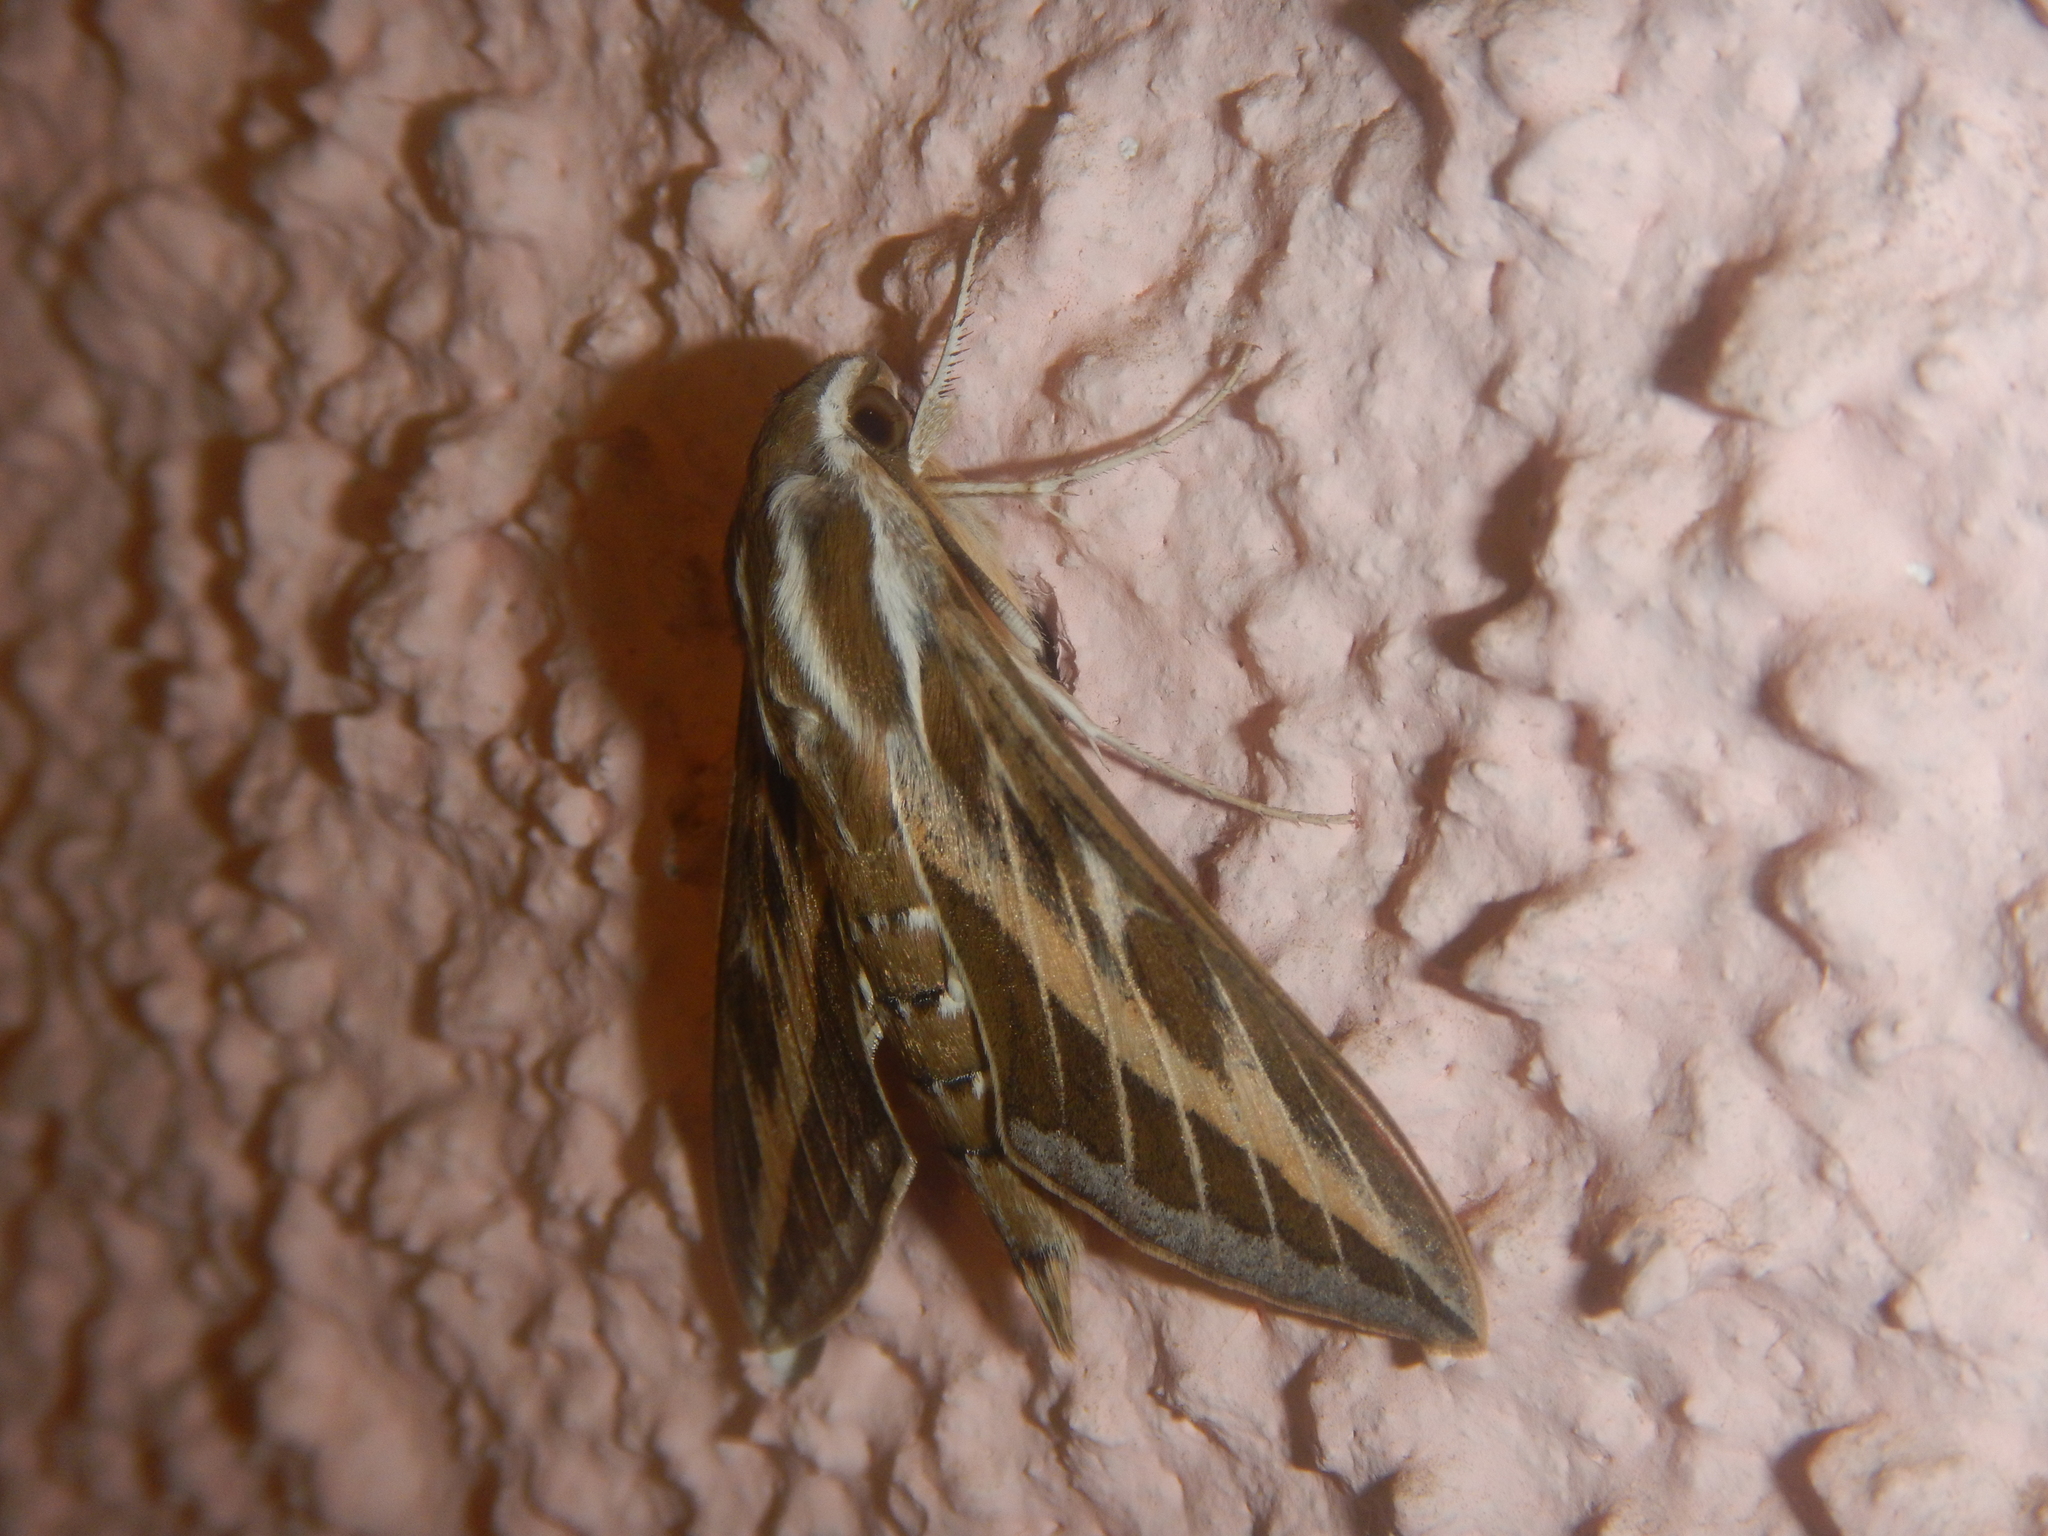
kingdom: Animalia
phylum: Arthropoda
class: Insecta
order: Lepidoptera
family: Sphingidae
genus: Hyles
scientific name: Hyles livornica
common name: Striped hawk-moth
